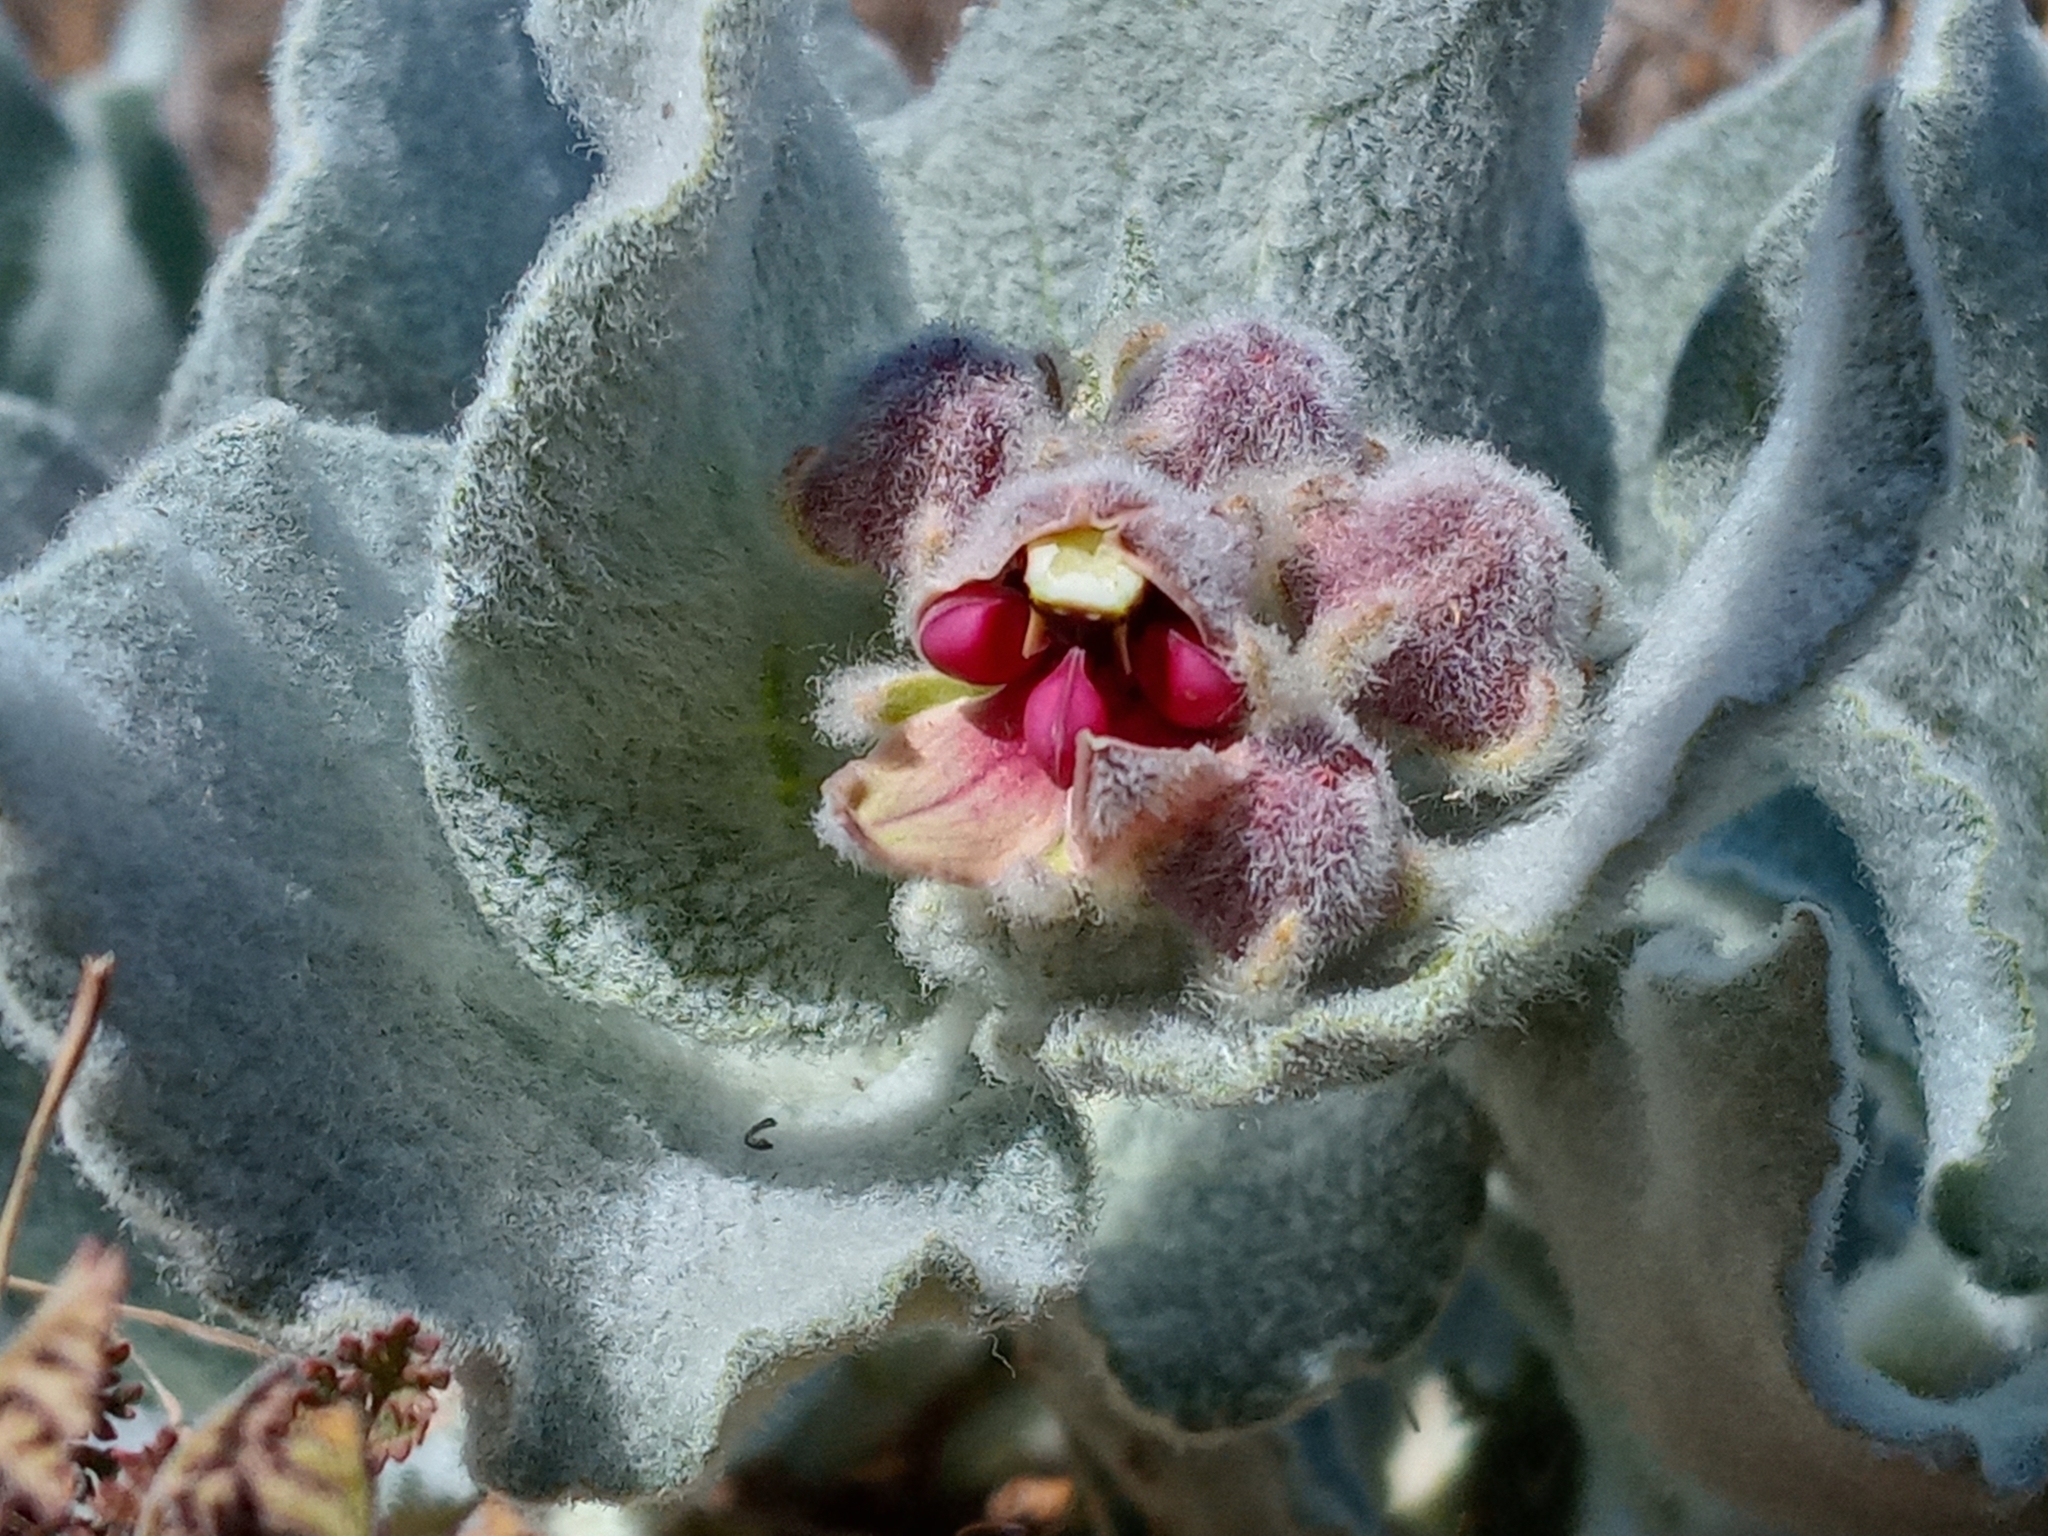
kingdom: Plantae
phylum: Tracheophyta
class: Magnoliopsida
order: Gentianales
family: Apocynaceae
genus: Asclepias
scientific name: Asclepias californica
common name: California milkweed
